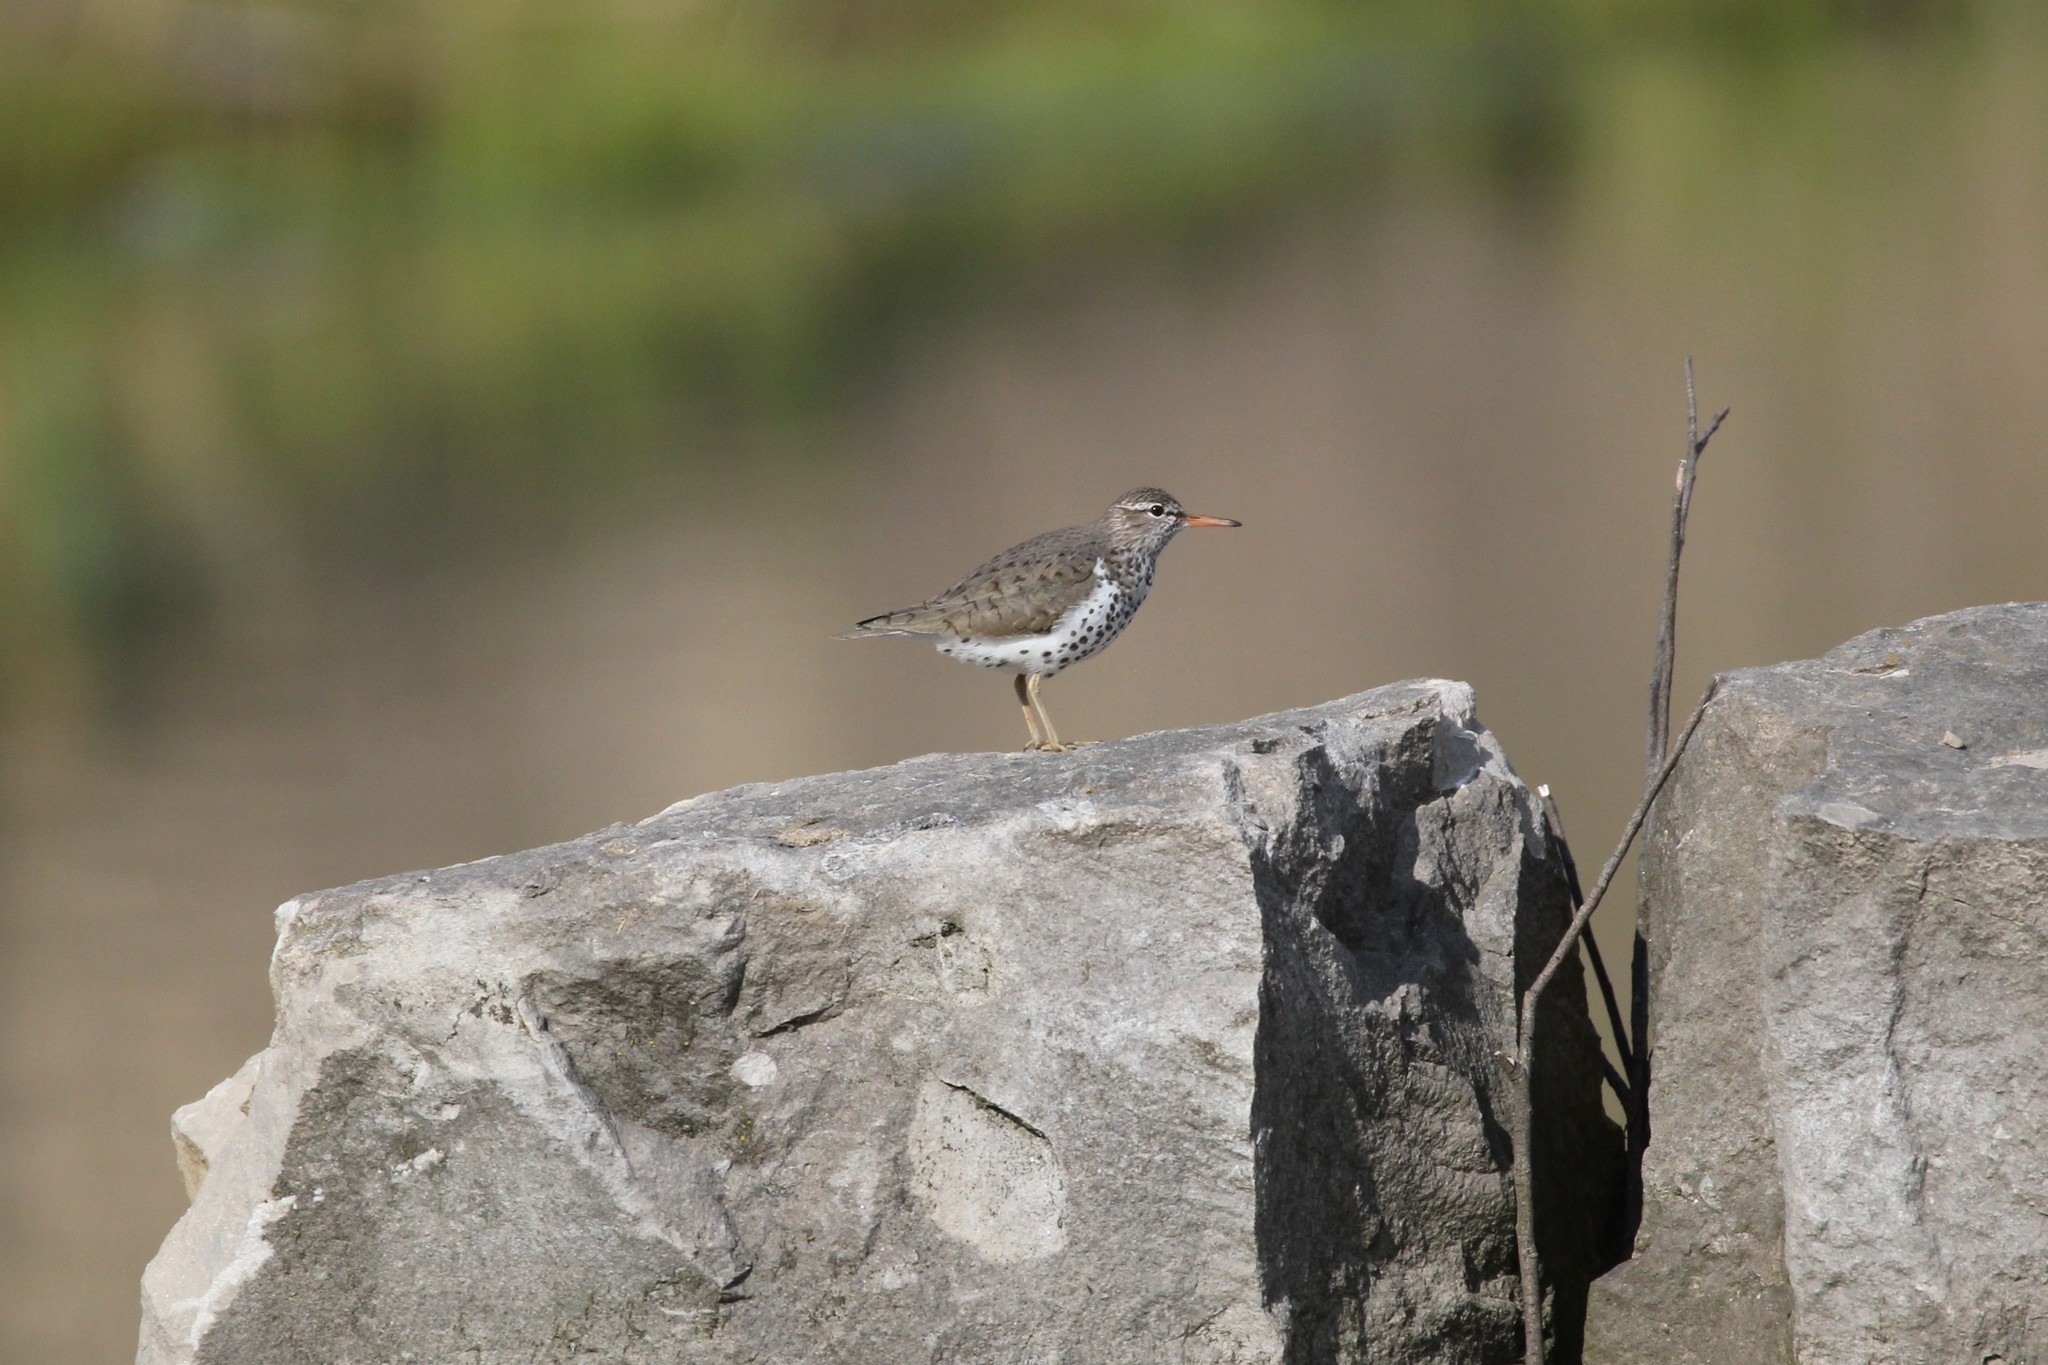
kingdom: Animalia
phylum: Chordata
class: Aves
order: Charadriiformes
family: Scolopacidae
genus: Actitis
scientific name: Actitis macularius
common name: Spotted sandpiper
